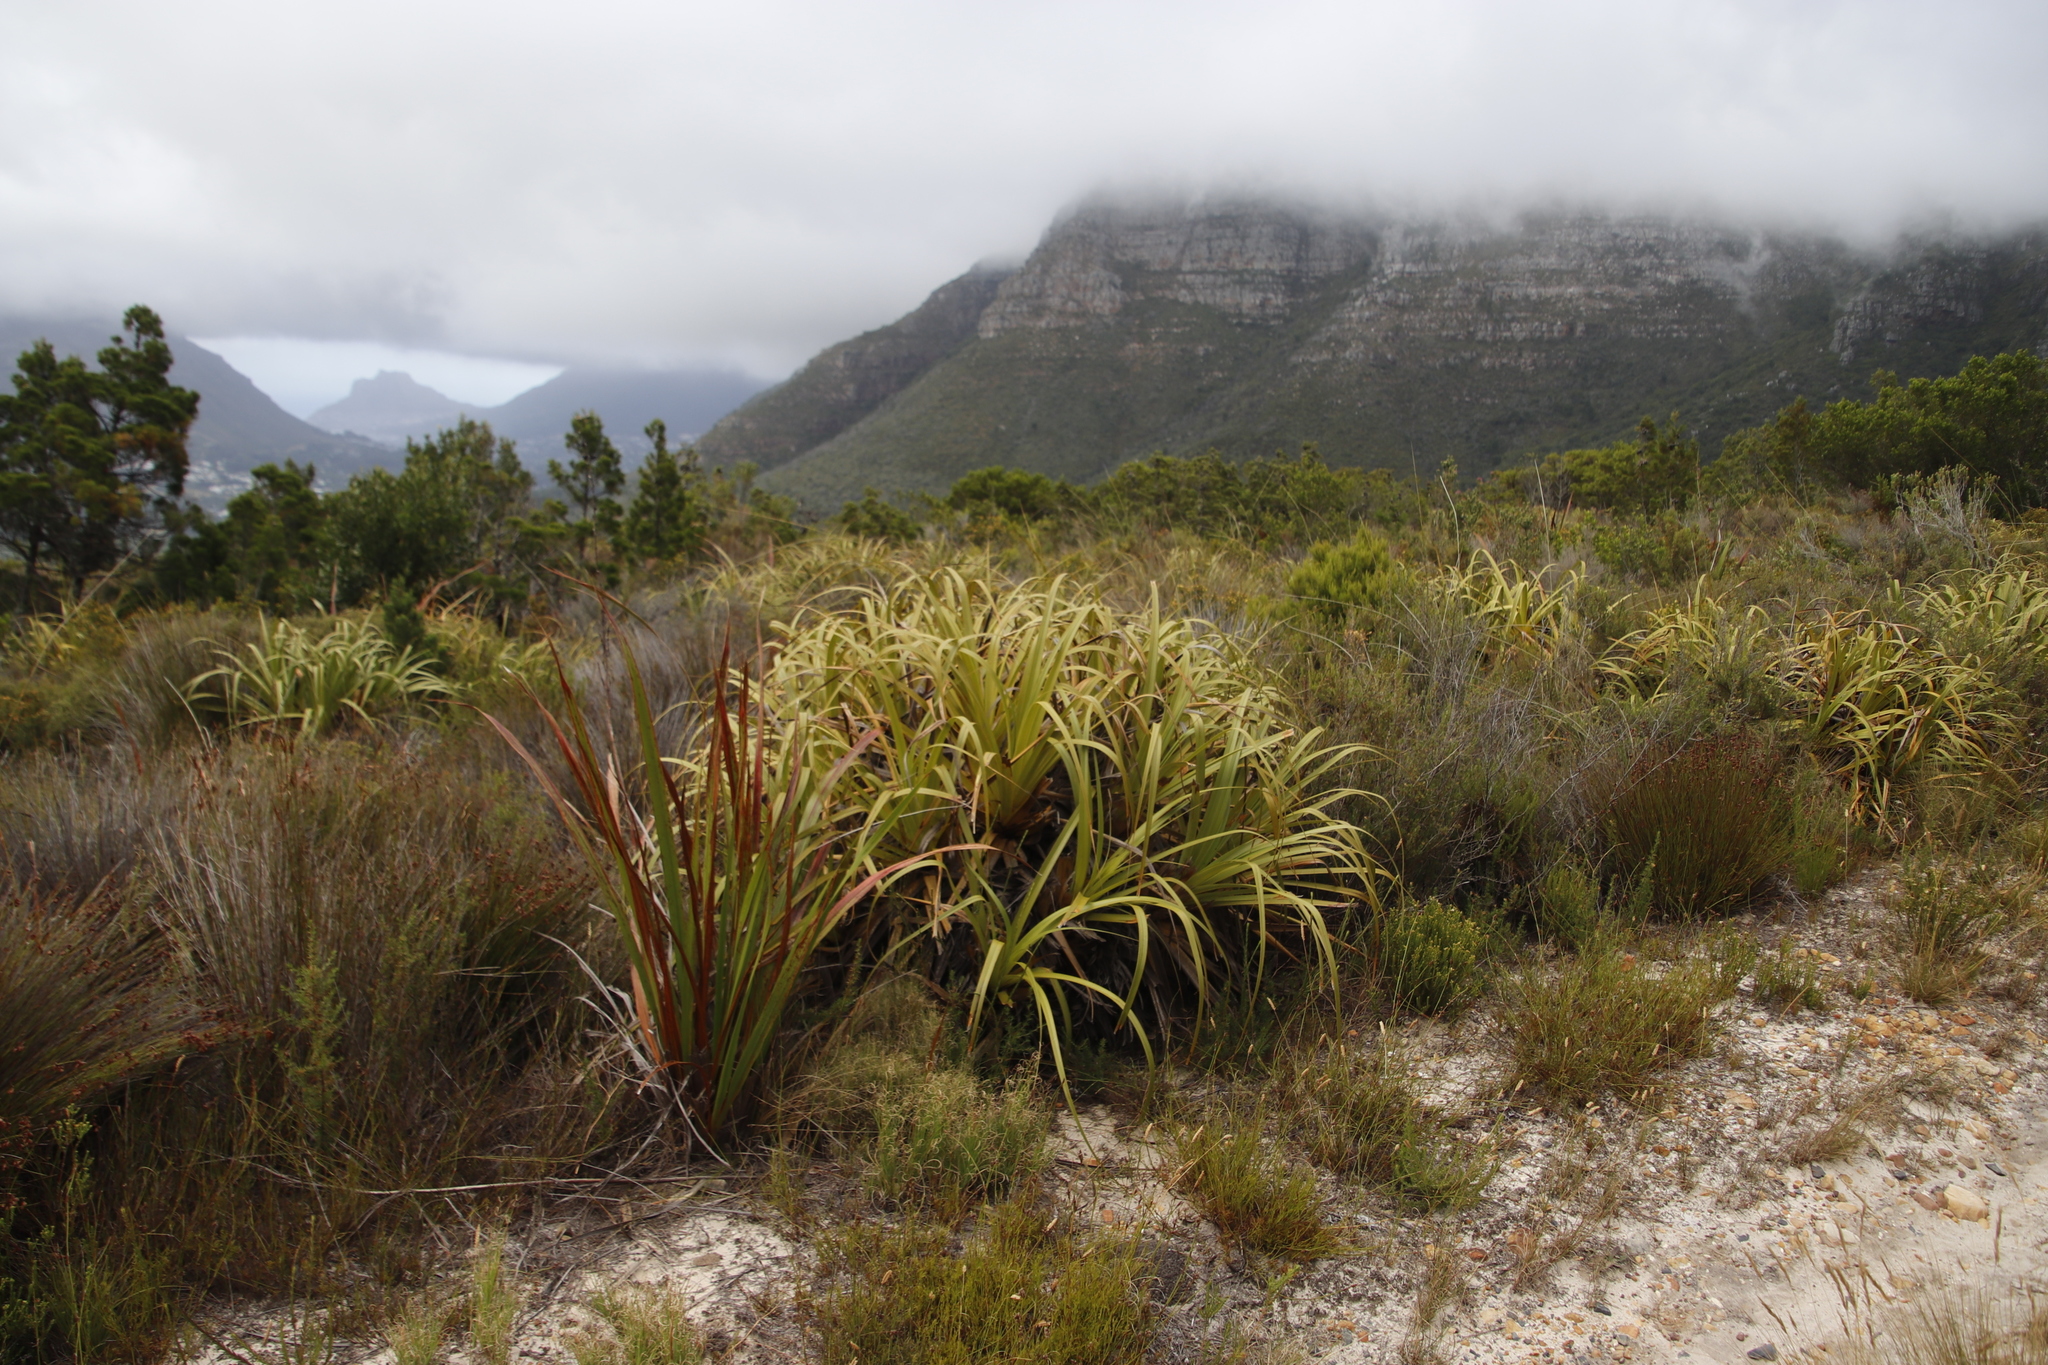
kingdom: Plantae
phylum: Tracheophyta
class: Liliopsida
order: Poales
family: Cyperaceae
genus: Tetraria
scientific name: Tetraria thermalis
